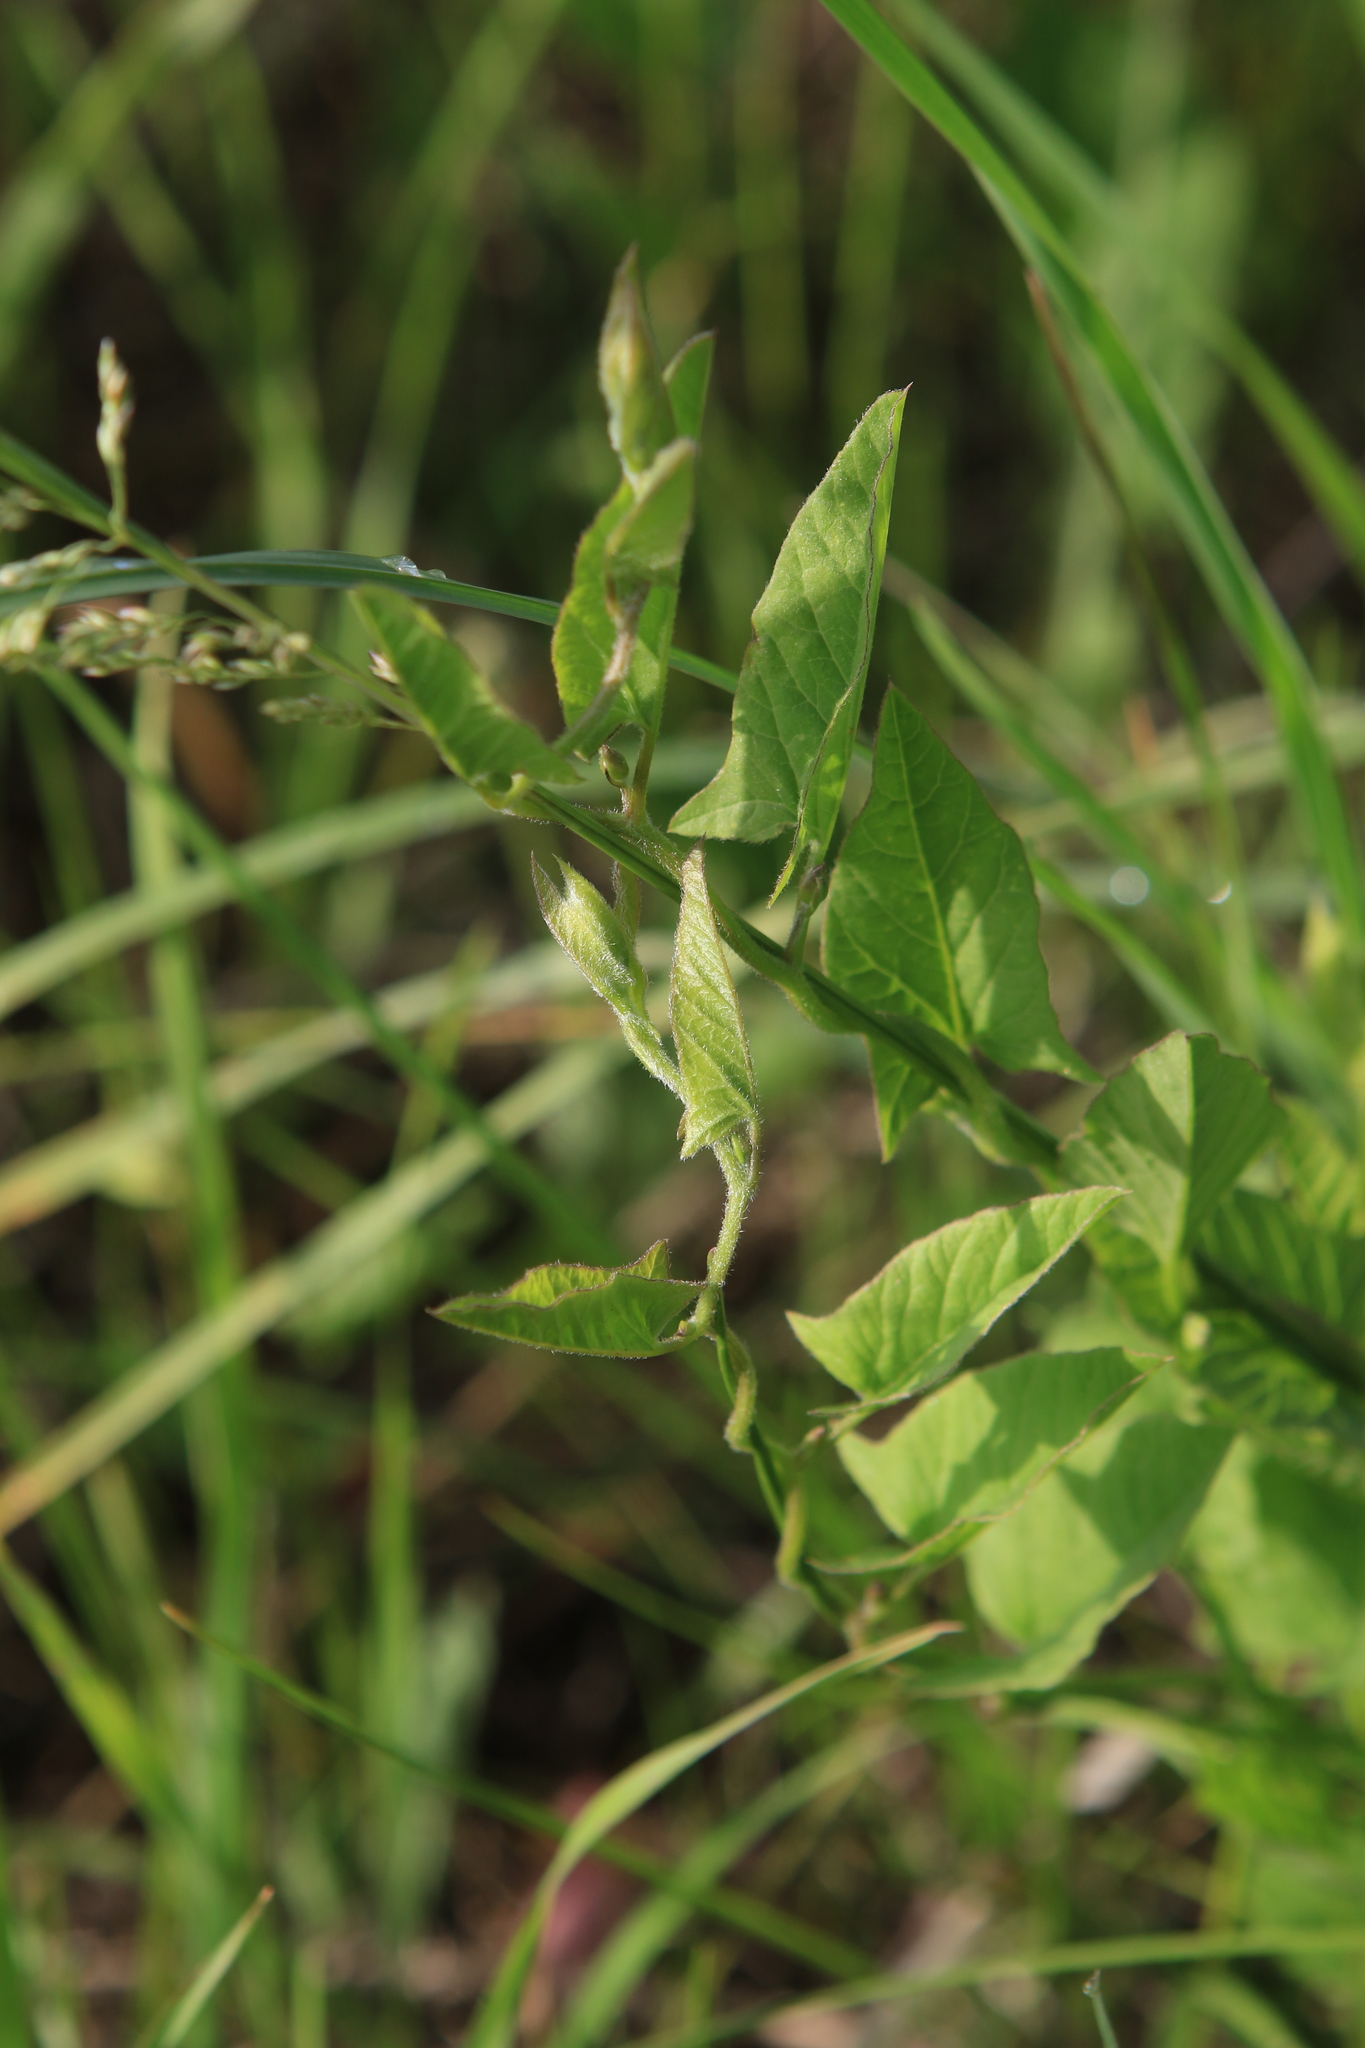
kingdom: Plantae
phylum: Tracheophyta
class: Magnoliopsida
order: Solanales
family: Convolvulaceae
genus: Convolvulus
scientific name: Convolvulus arvensis
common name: Field bindweed
